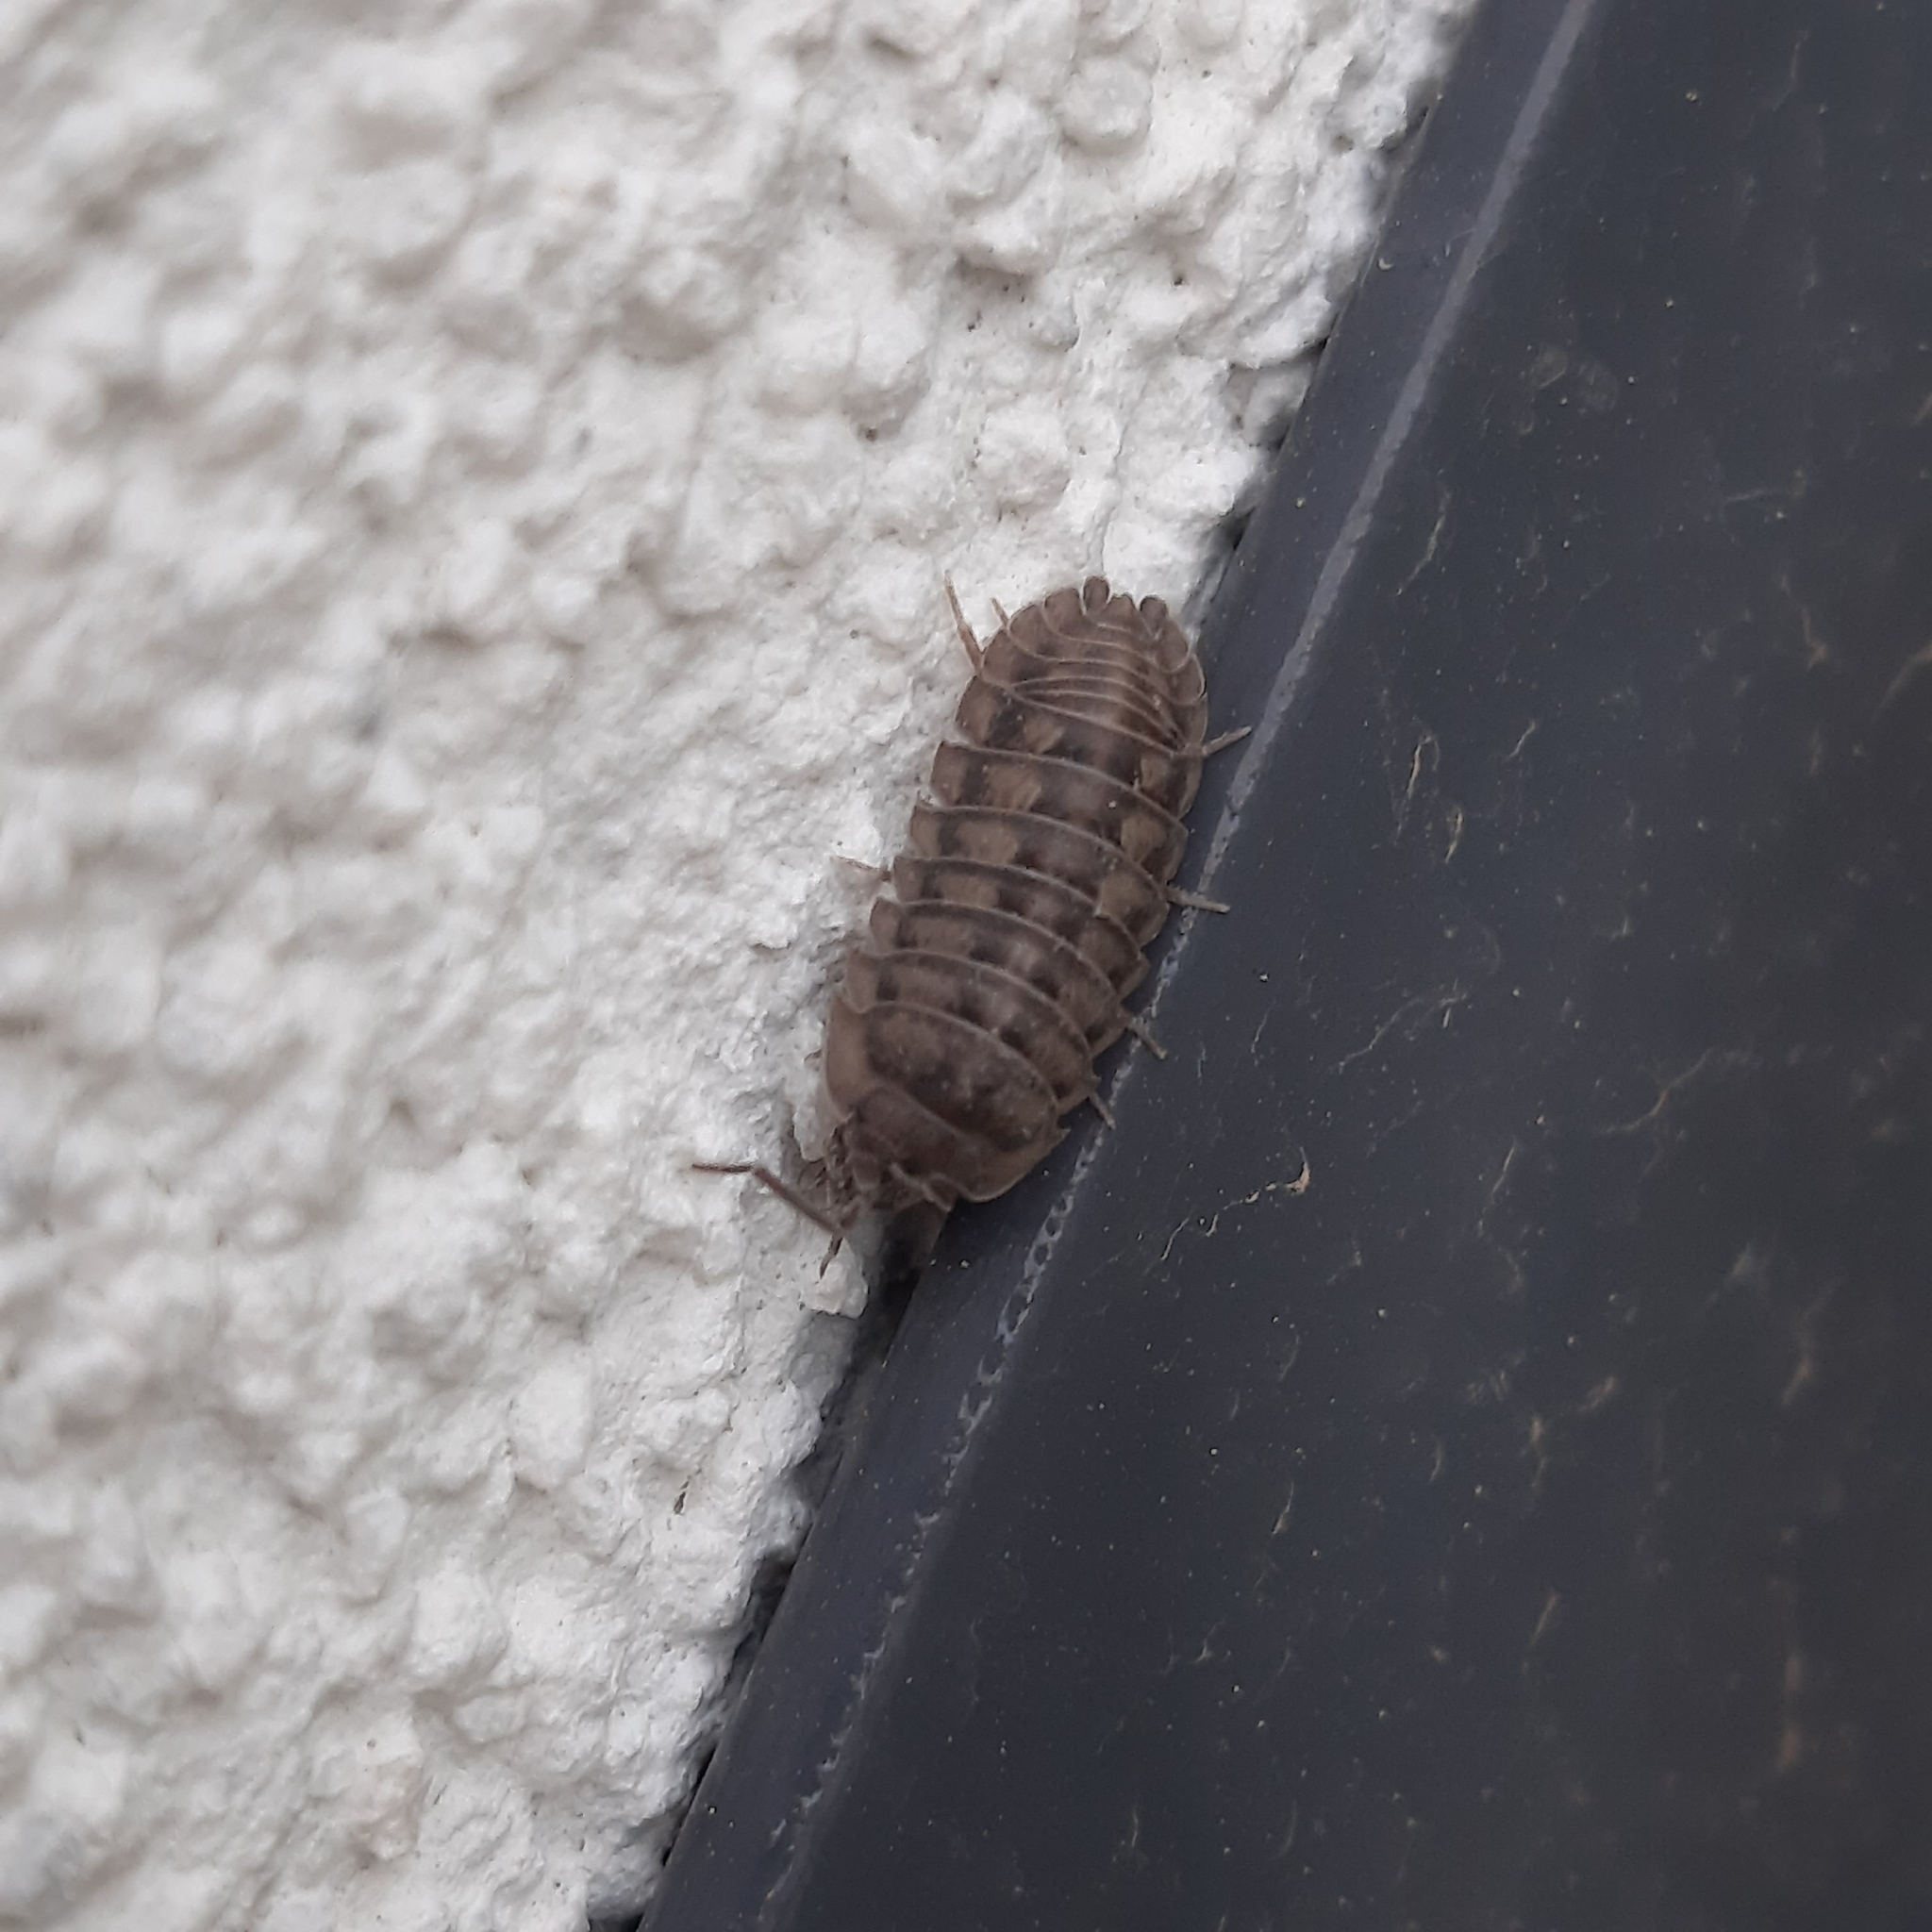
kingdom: Animalia
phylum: Arthropoda
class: Malacostraca
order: Isopoda
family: Armadillidiidae
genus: Armadillidium
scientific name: Armadillidium nasatum
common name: Isopod
